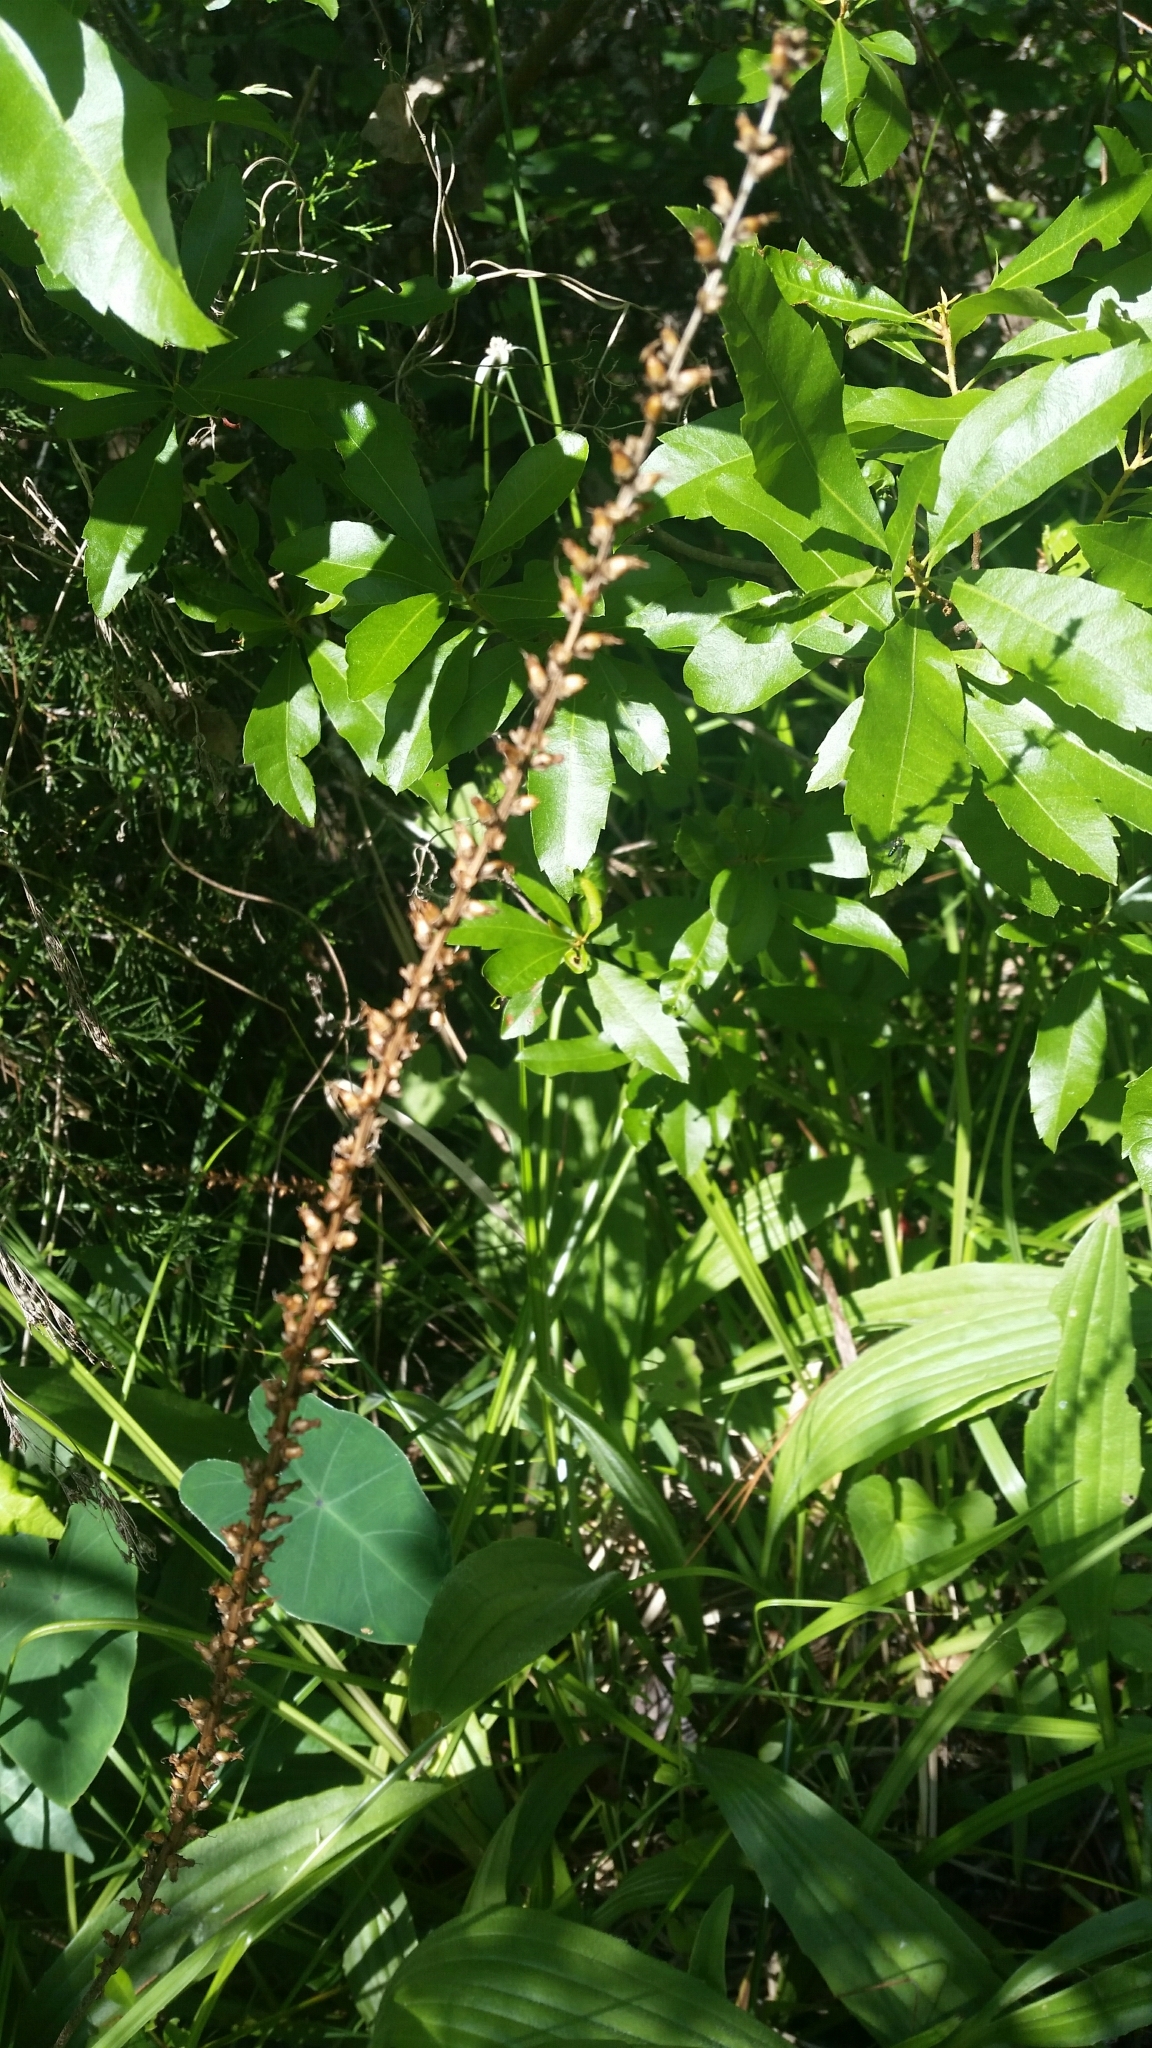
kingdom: Plantae
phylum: Tracheophyta
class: Magnoliopsida
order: Lamiales
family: Plantaginaceae
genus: Plantago
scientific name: Plantago sparsiflora
